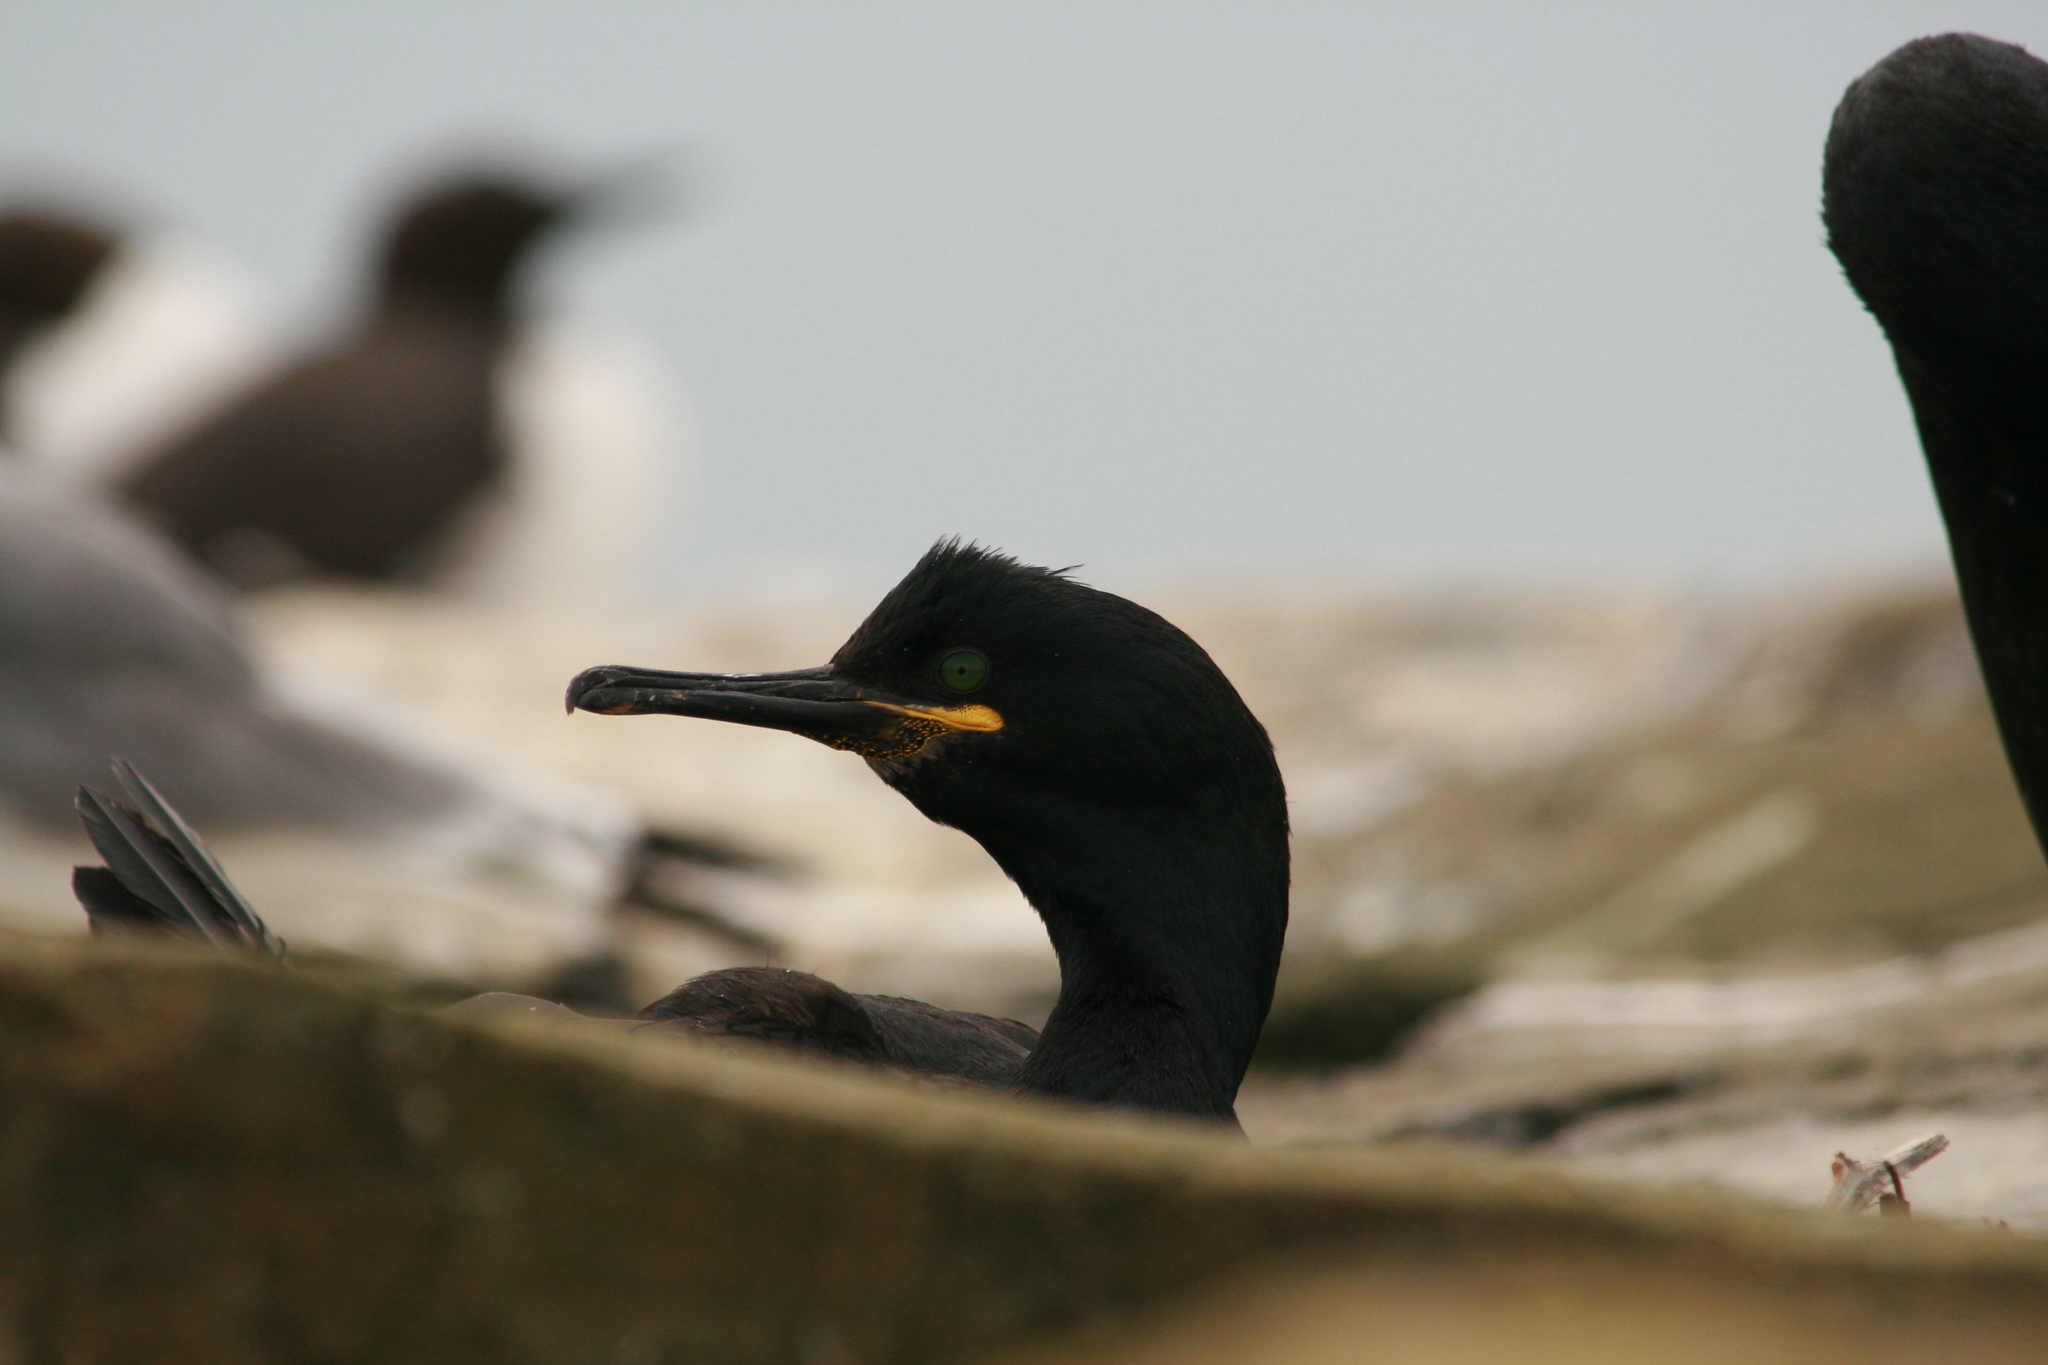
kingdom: Animalia
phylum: Chordata
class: Aves
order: Suliformes
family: Phalacrocoracidae
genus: Phalacrocorax
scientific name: Phalacrocorax aristotelis
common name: European shag
